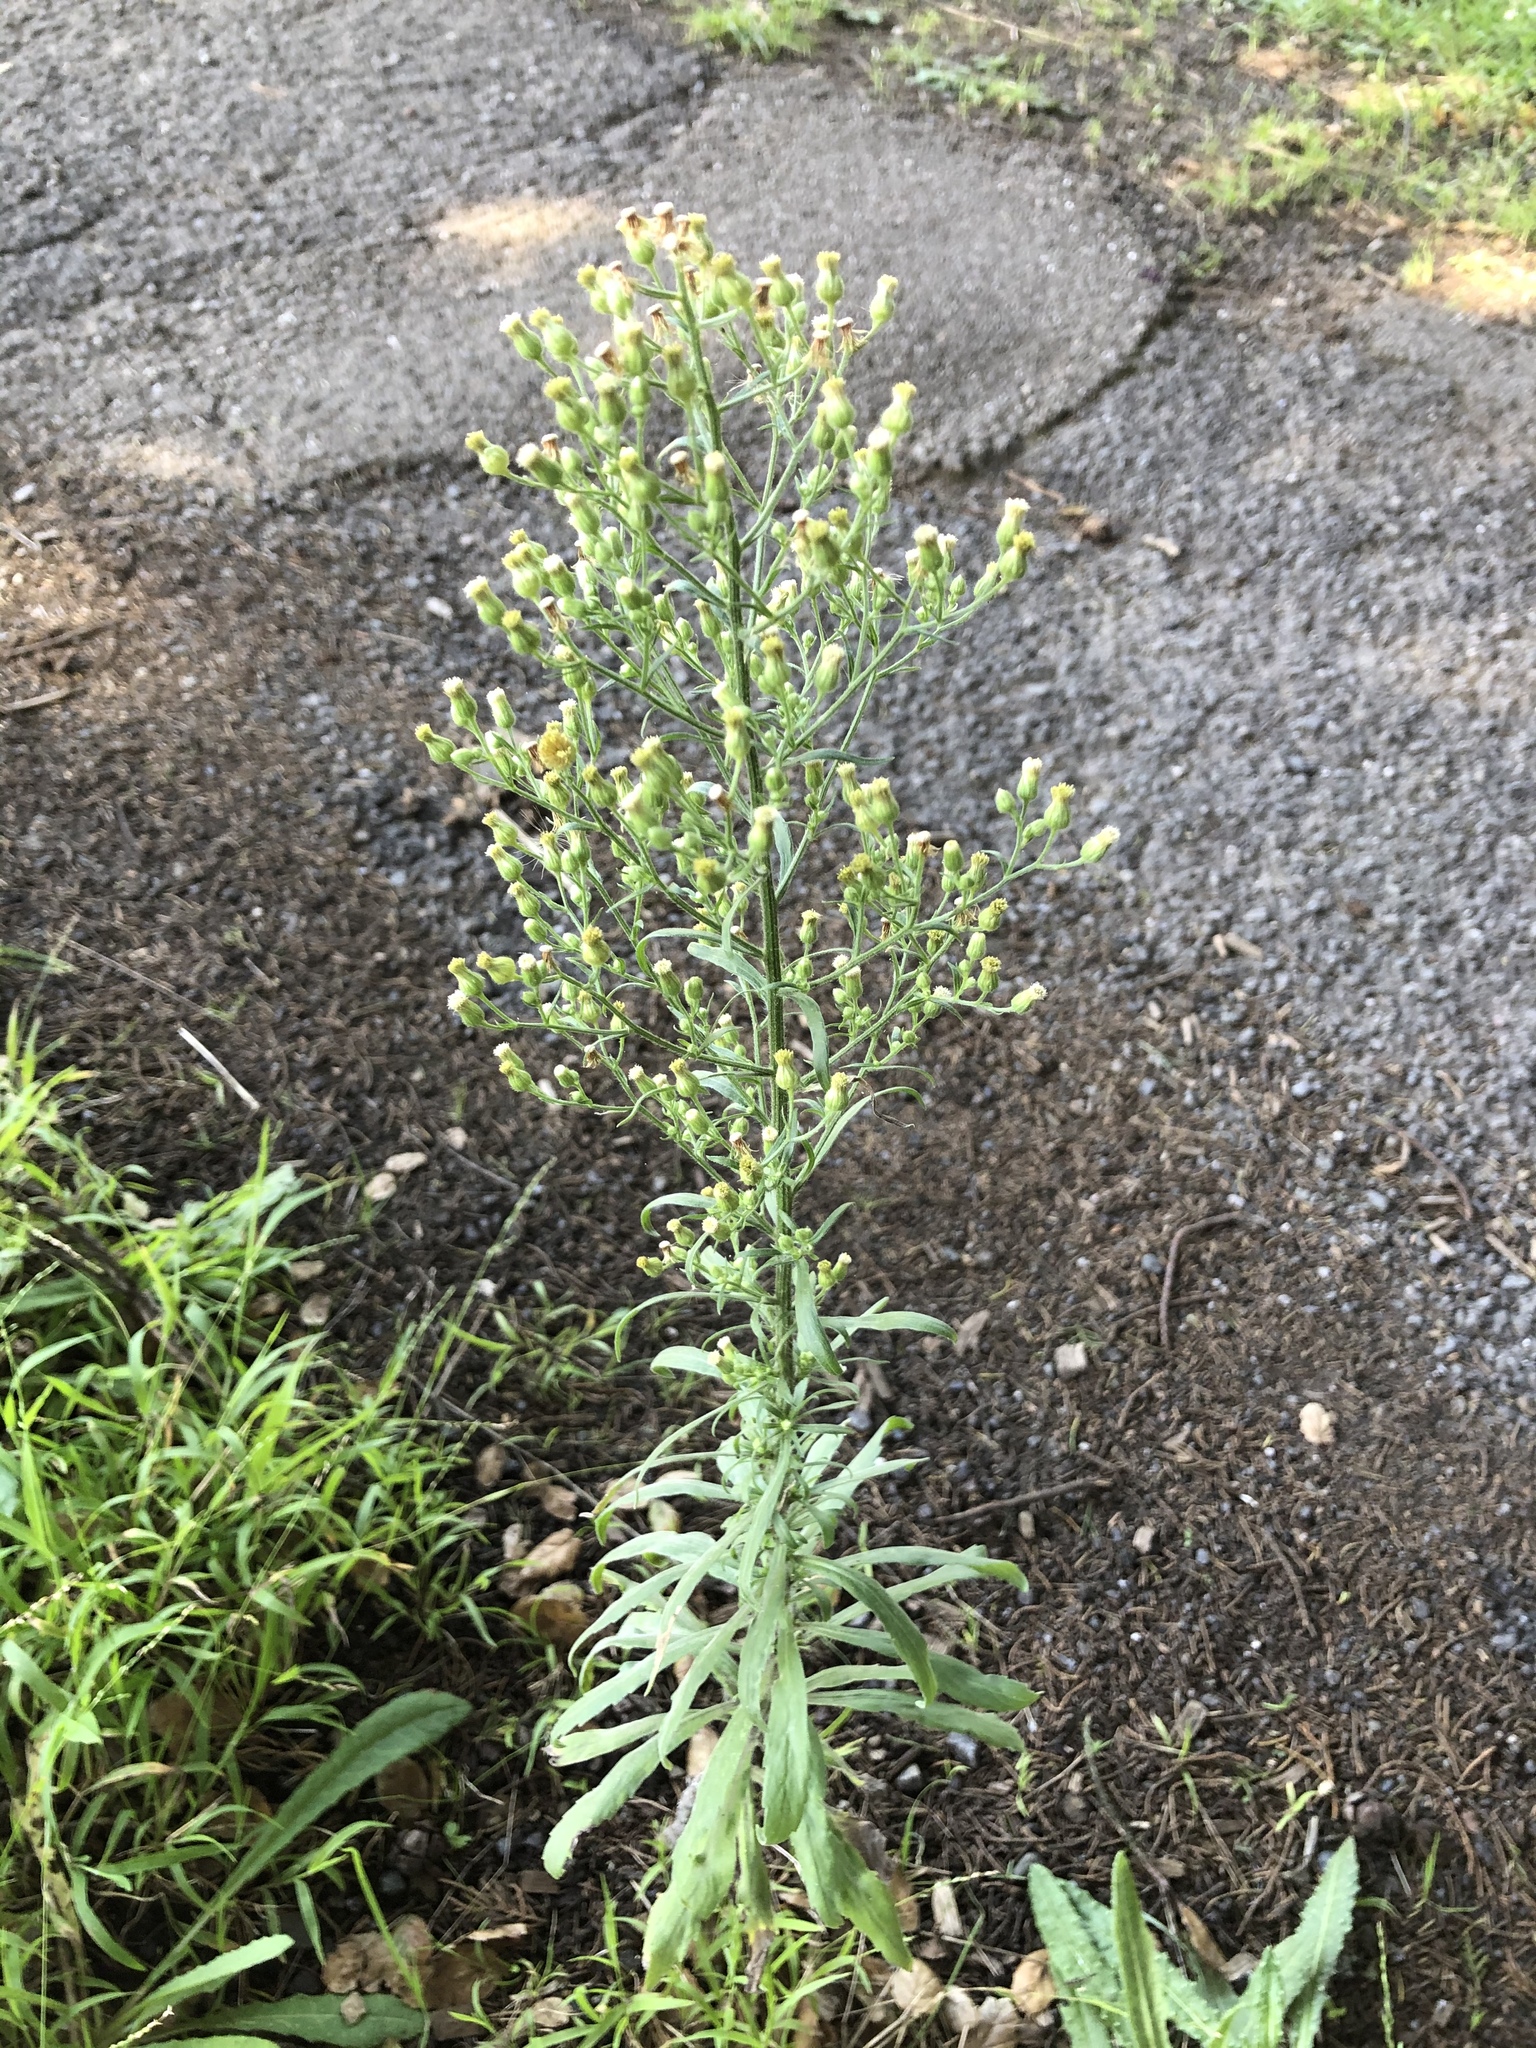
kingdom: Plantae
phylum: Tracheophyta
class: Magnoliopsida
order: Asterales
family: Asteraceae
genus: Erigeron
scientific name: Erigeron canadensis
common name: Canadian fleabane
